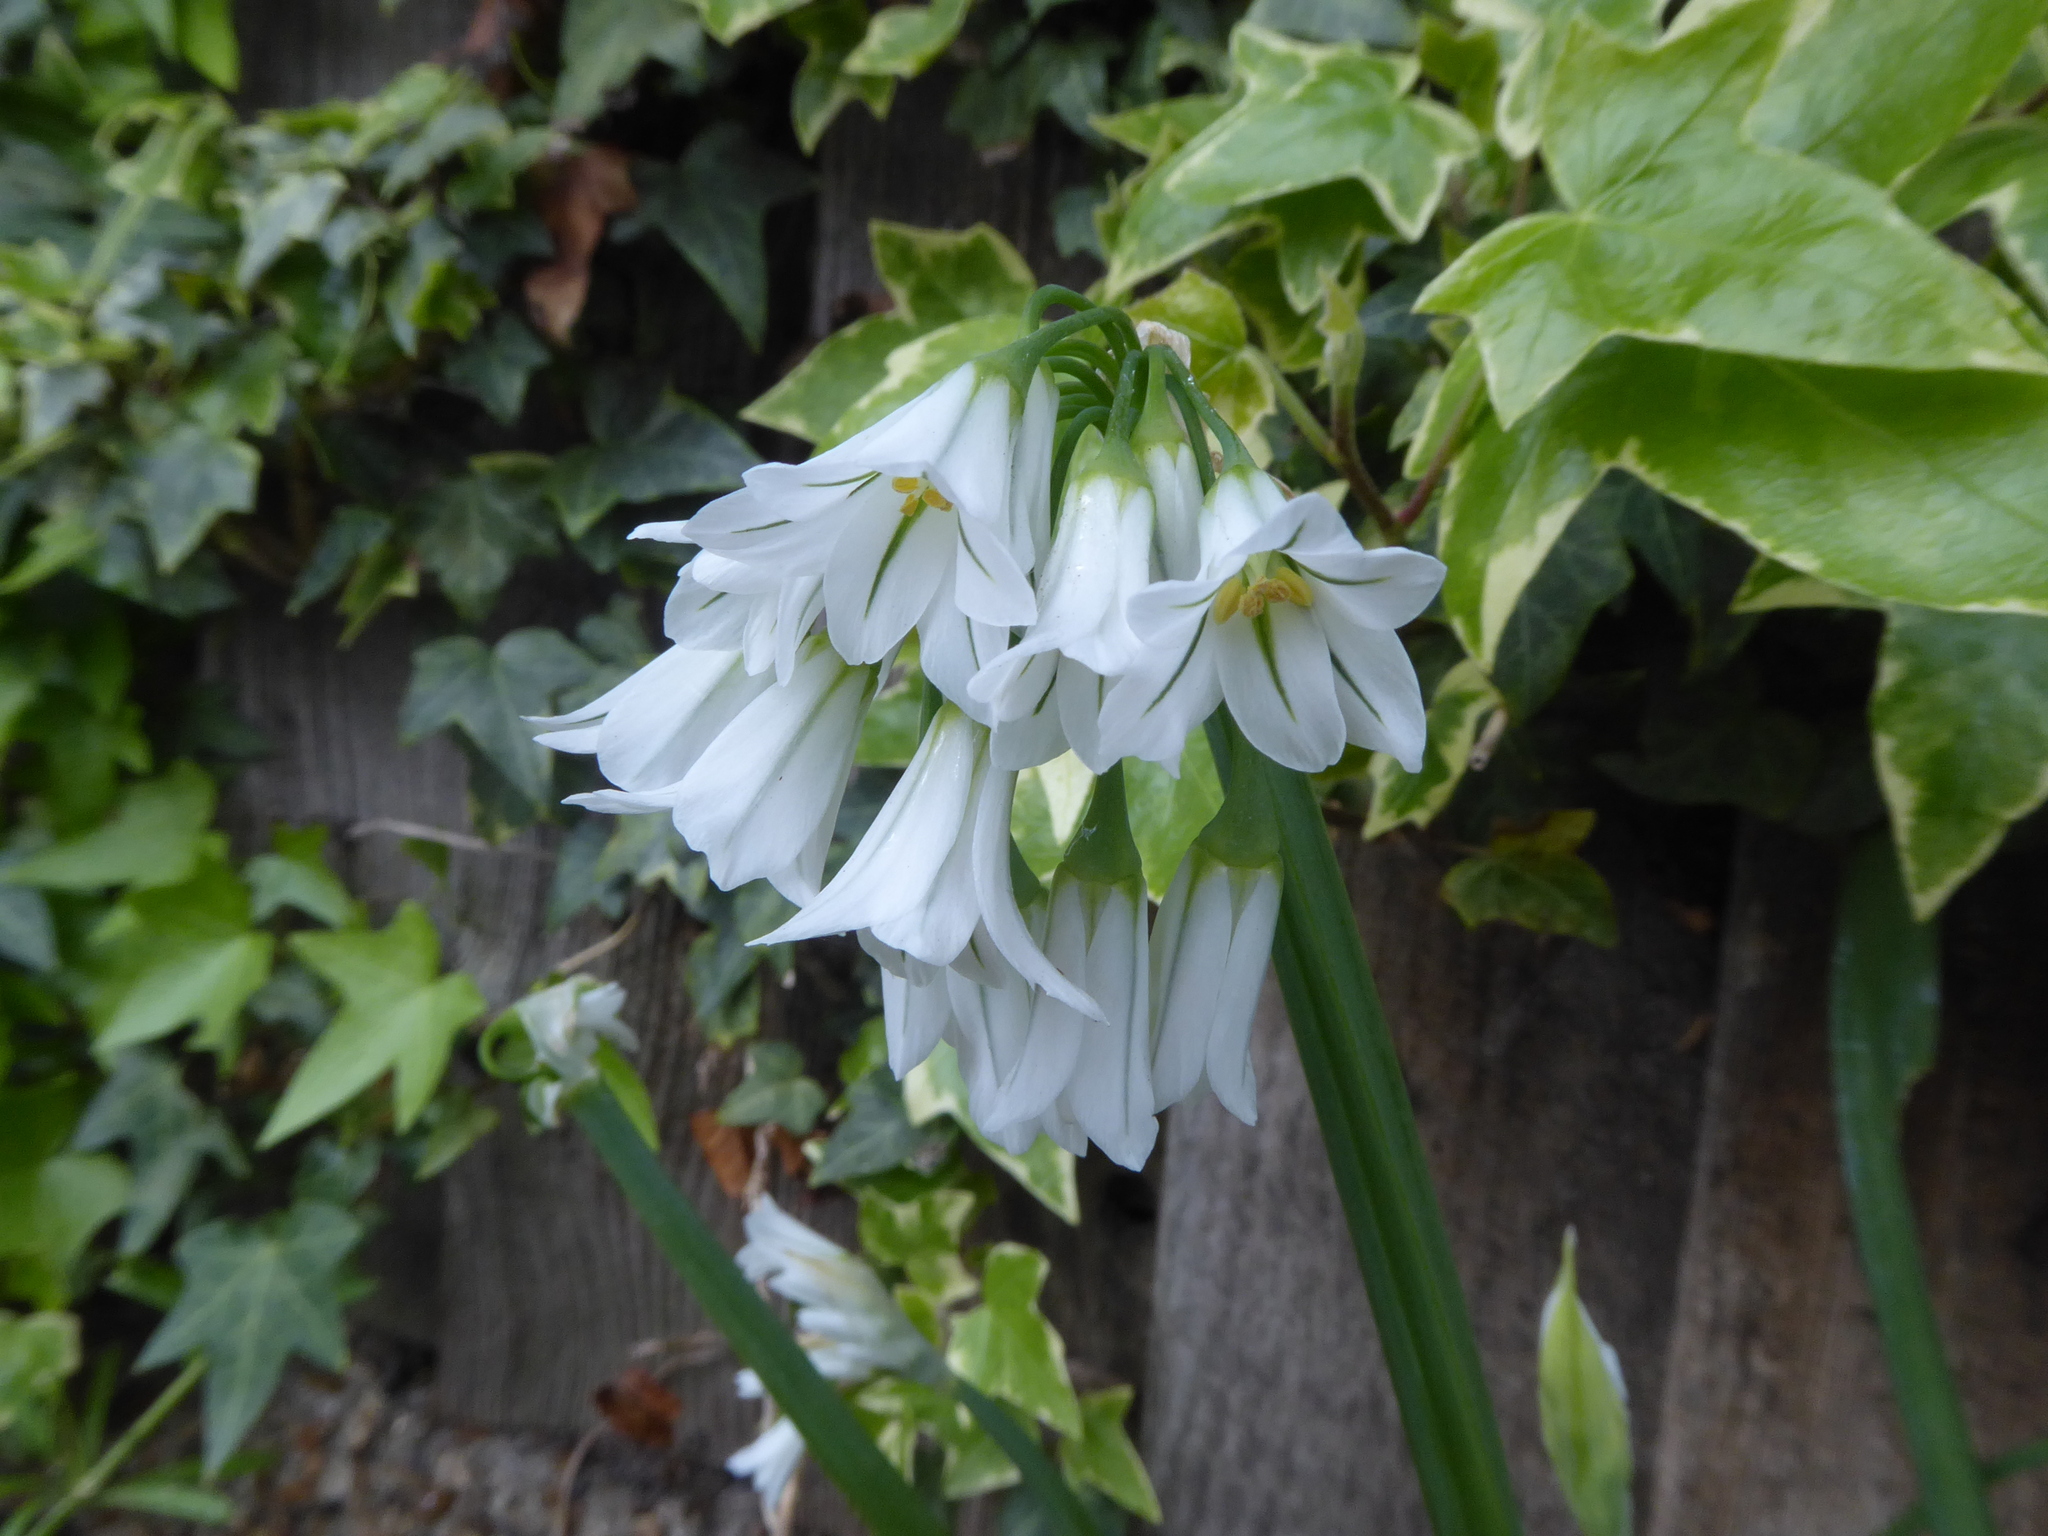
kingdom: Plantae
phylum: Tracheophyta
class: Liliopsida
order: Asparagales
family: Amaryllidaceae
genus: Allium
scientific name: Allium triquetrum
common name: Three-cornered garlic
